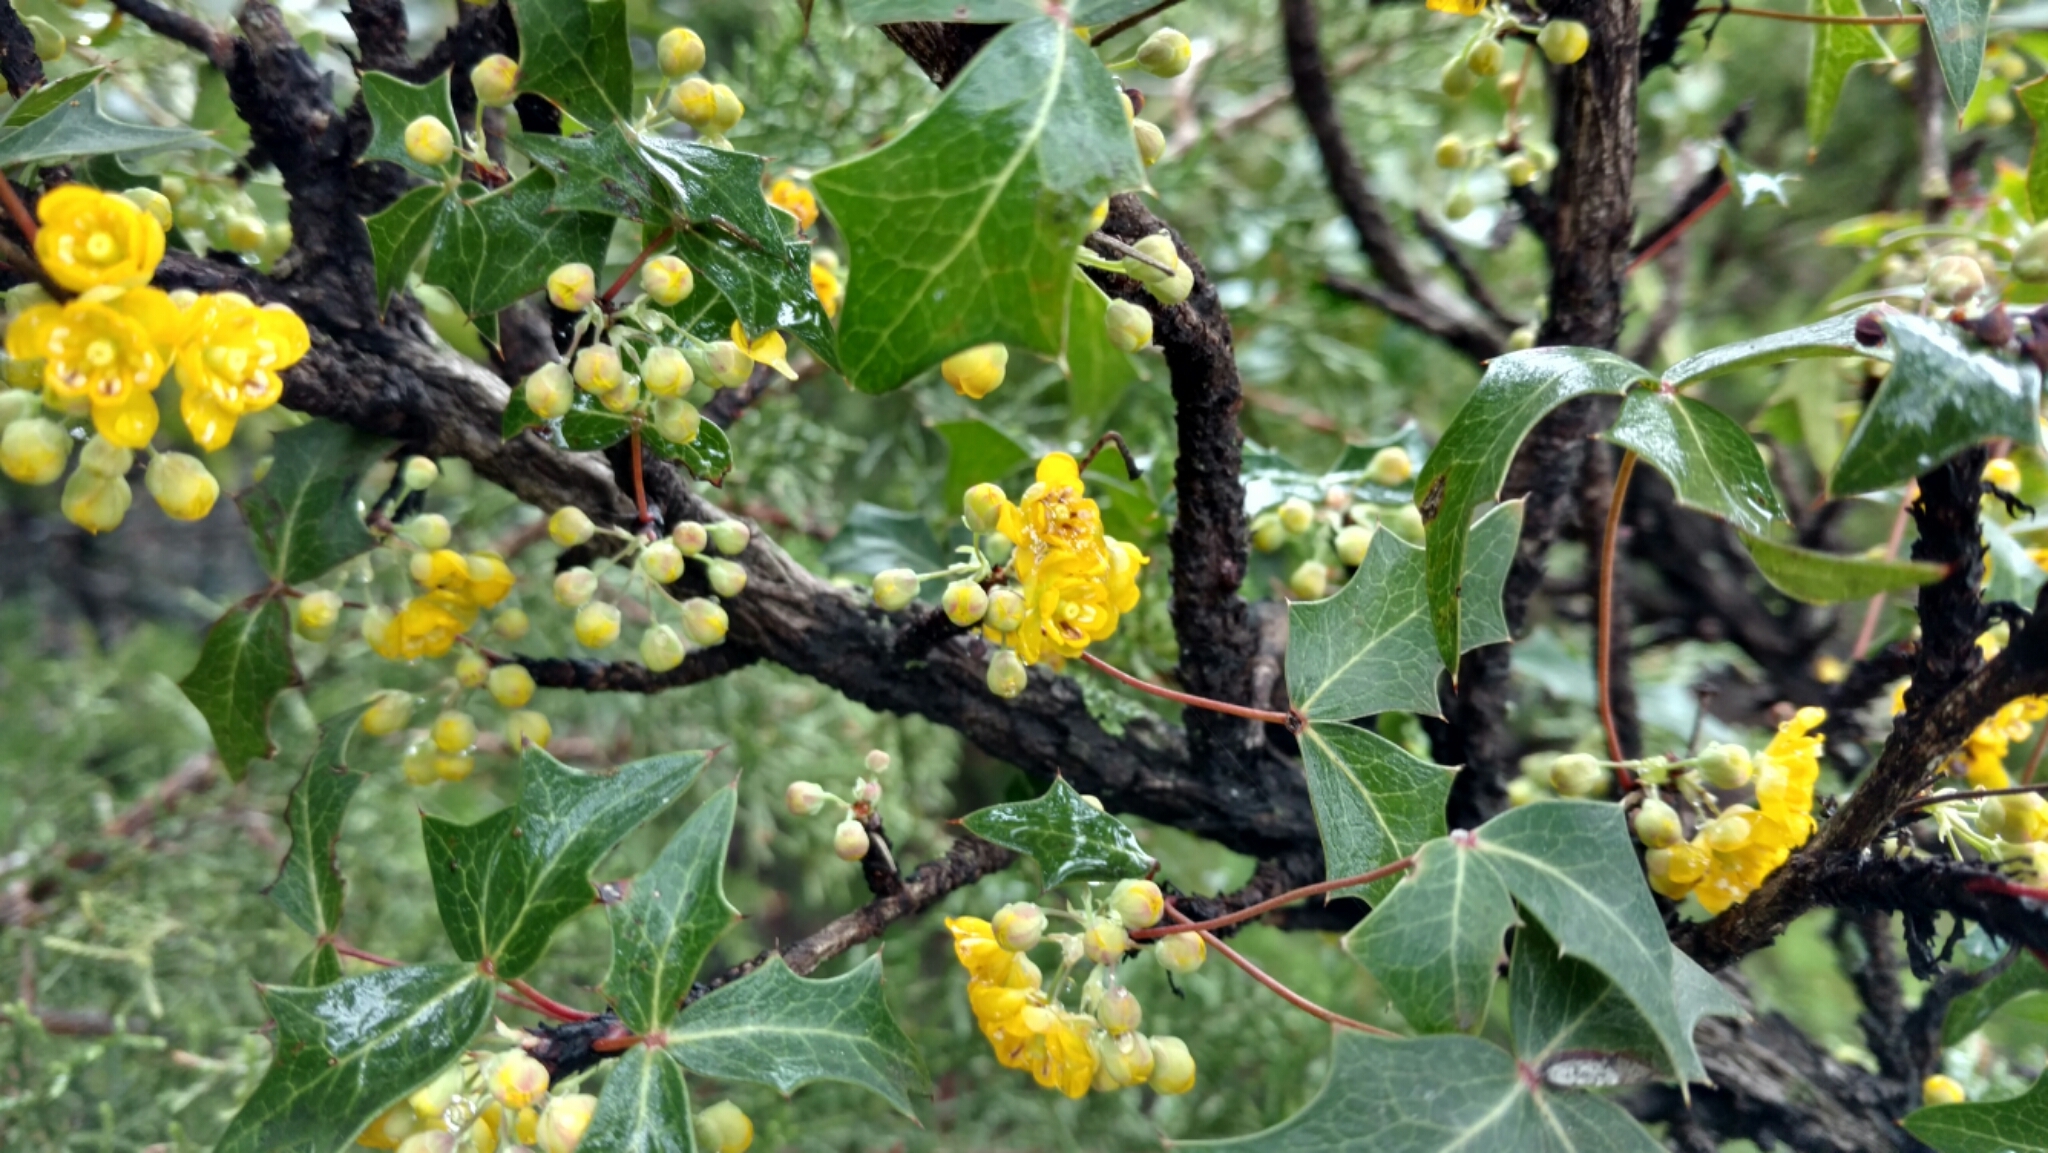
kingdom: Plantae
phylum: Tracheophyta
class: Magnoliopsida
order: Ranunculales
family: Berberidaceae
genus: Alloberberis
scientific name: Alloberberis trifoliolata
